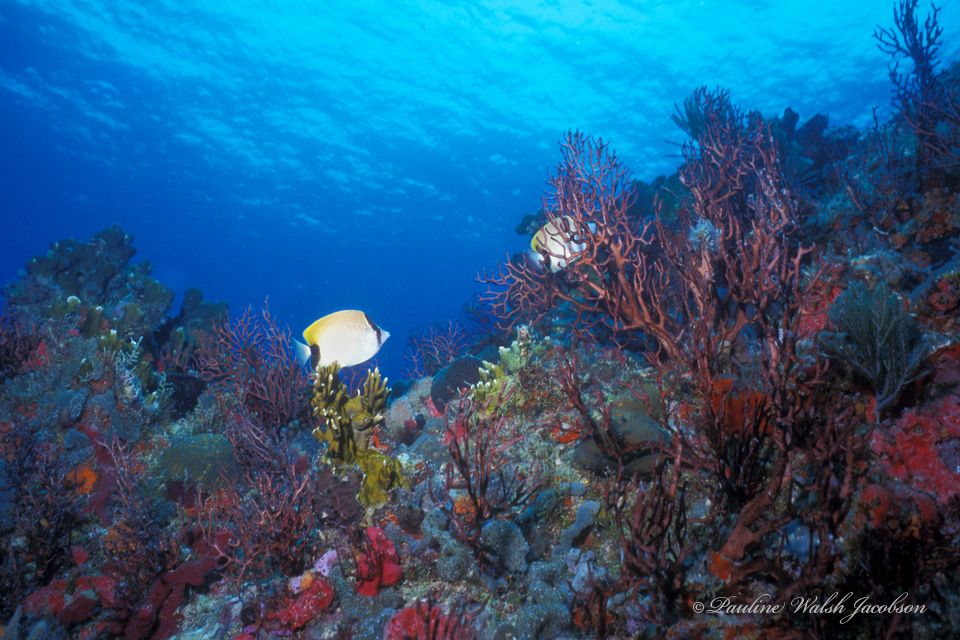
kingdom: Animalia
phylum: Chordata
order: Perciformes
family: Chaetodontidae
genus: Chaetodon
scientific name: Chaetodon sedentarius
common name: Reef butterflyfish
